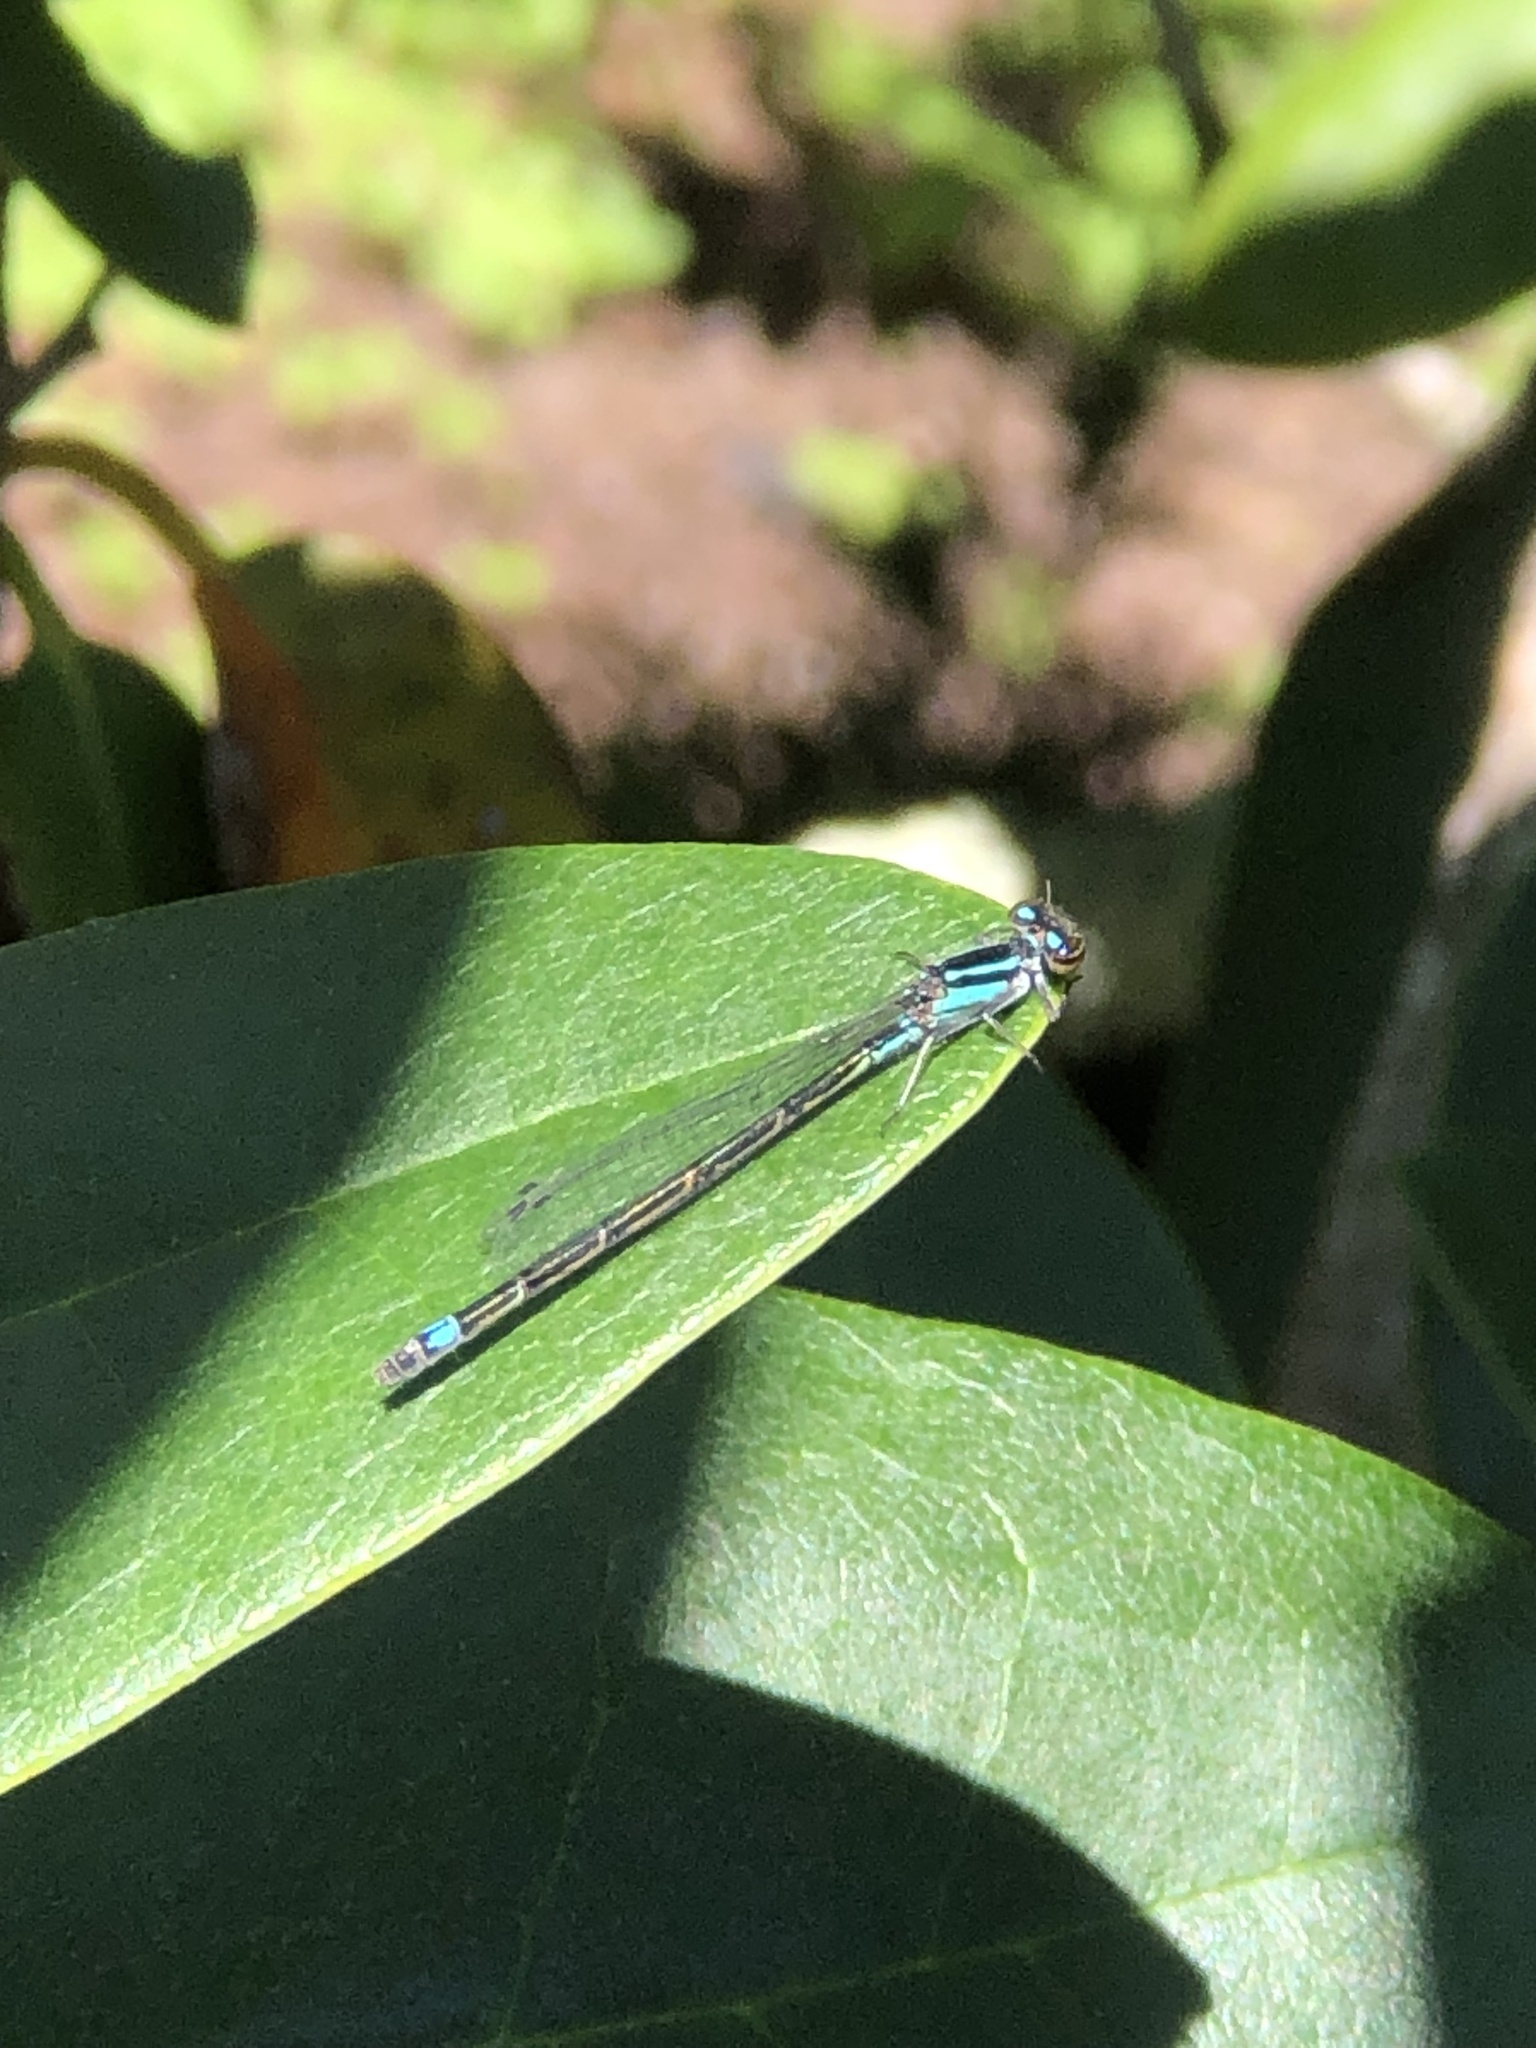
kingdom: Animalia
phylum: Arthropoda
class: Insecta
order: Odonata
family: Coenagrionidae
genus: Enallagma
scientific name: Enallagma geminatum
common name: Skimming bluet
